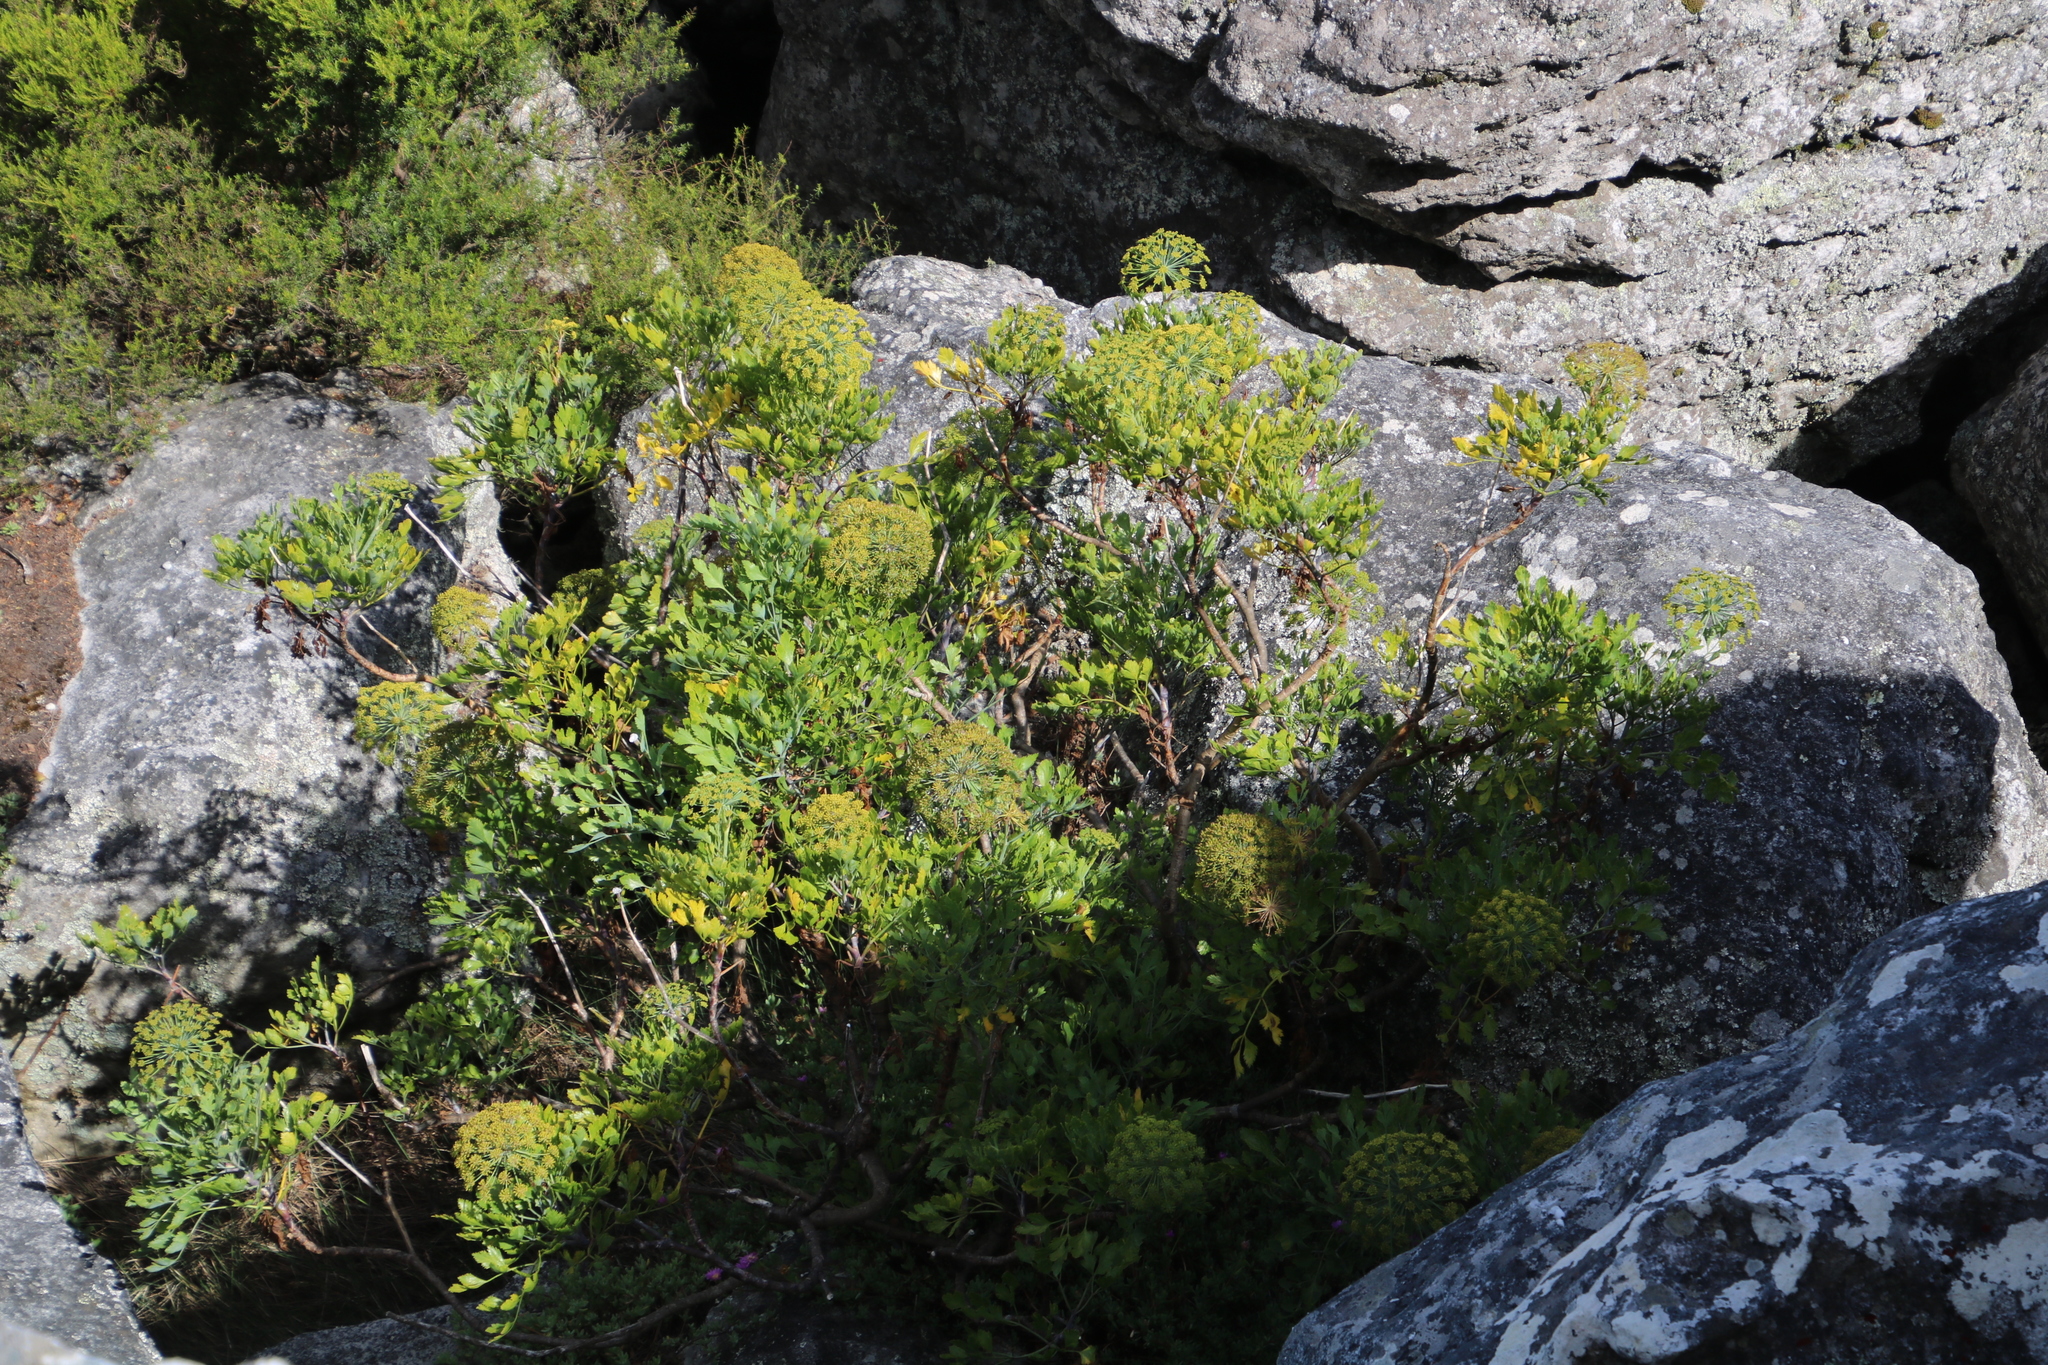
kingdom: Plantae
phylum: Tracheophyta
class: Magnoliopsida
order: Apiales
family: Apiaceae
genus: Notobubon
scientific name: Notobubon galbanum
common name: Blisterbush
